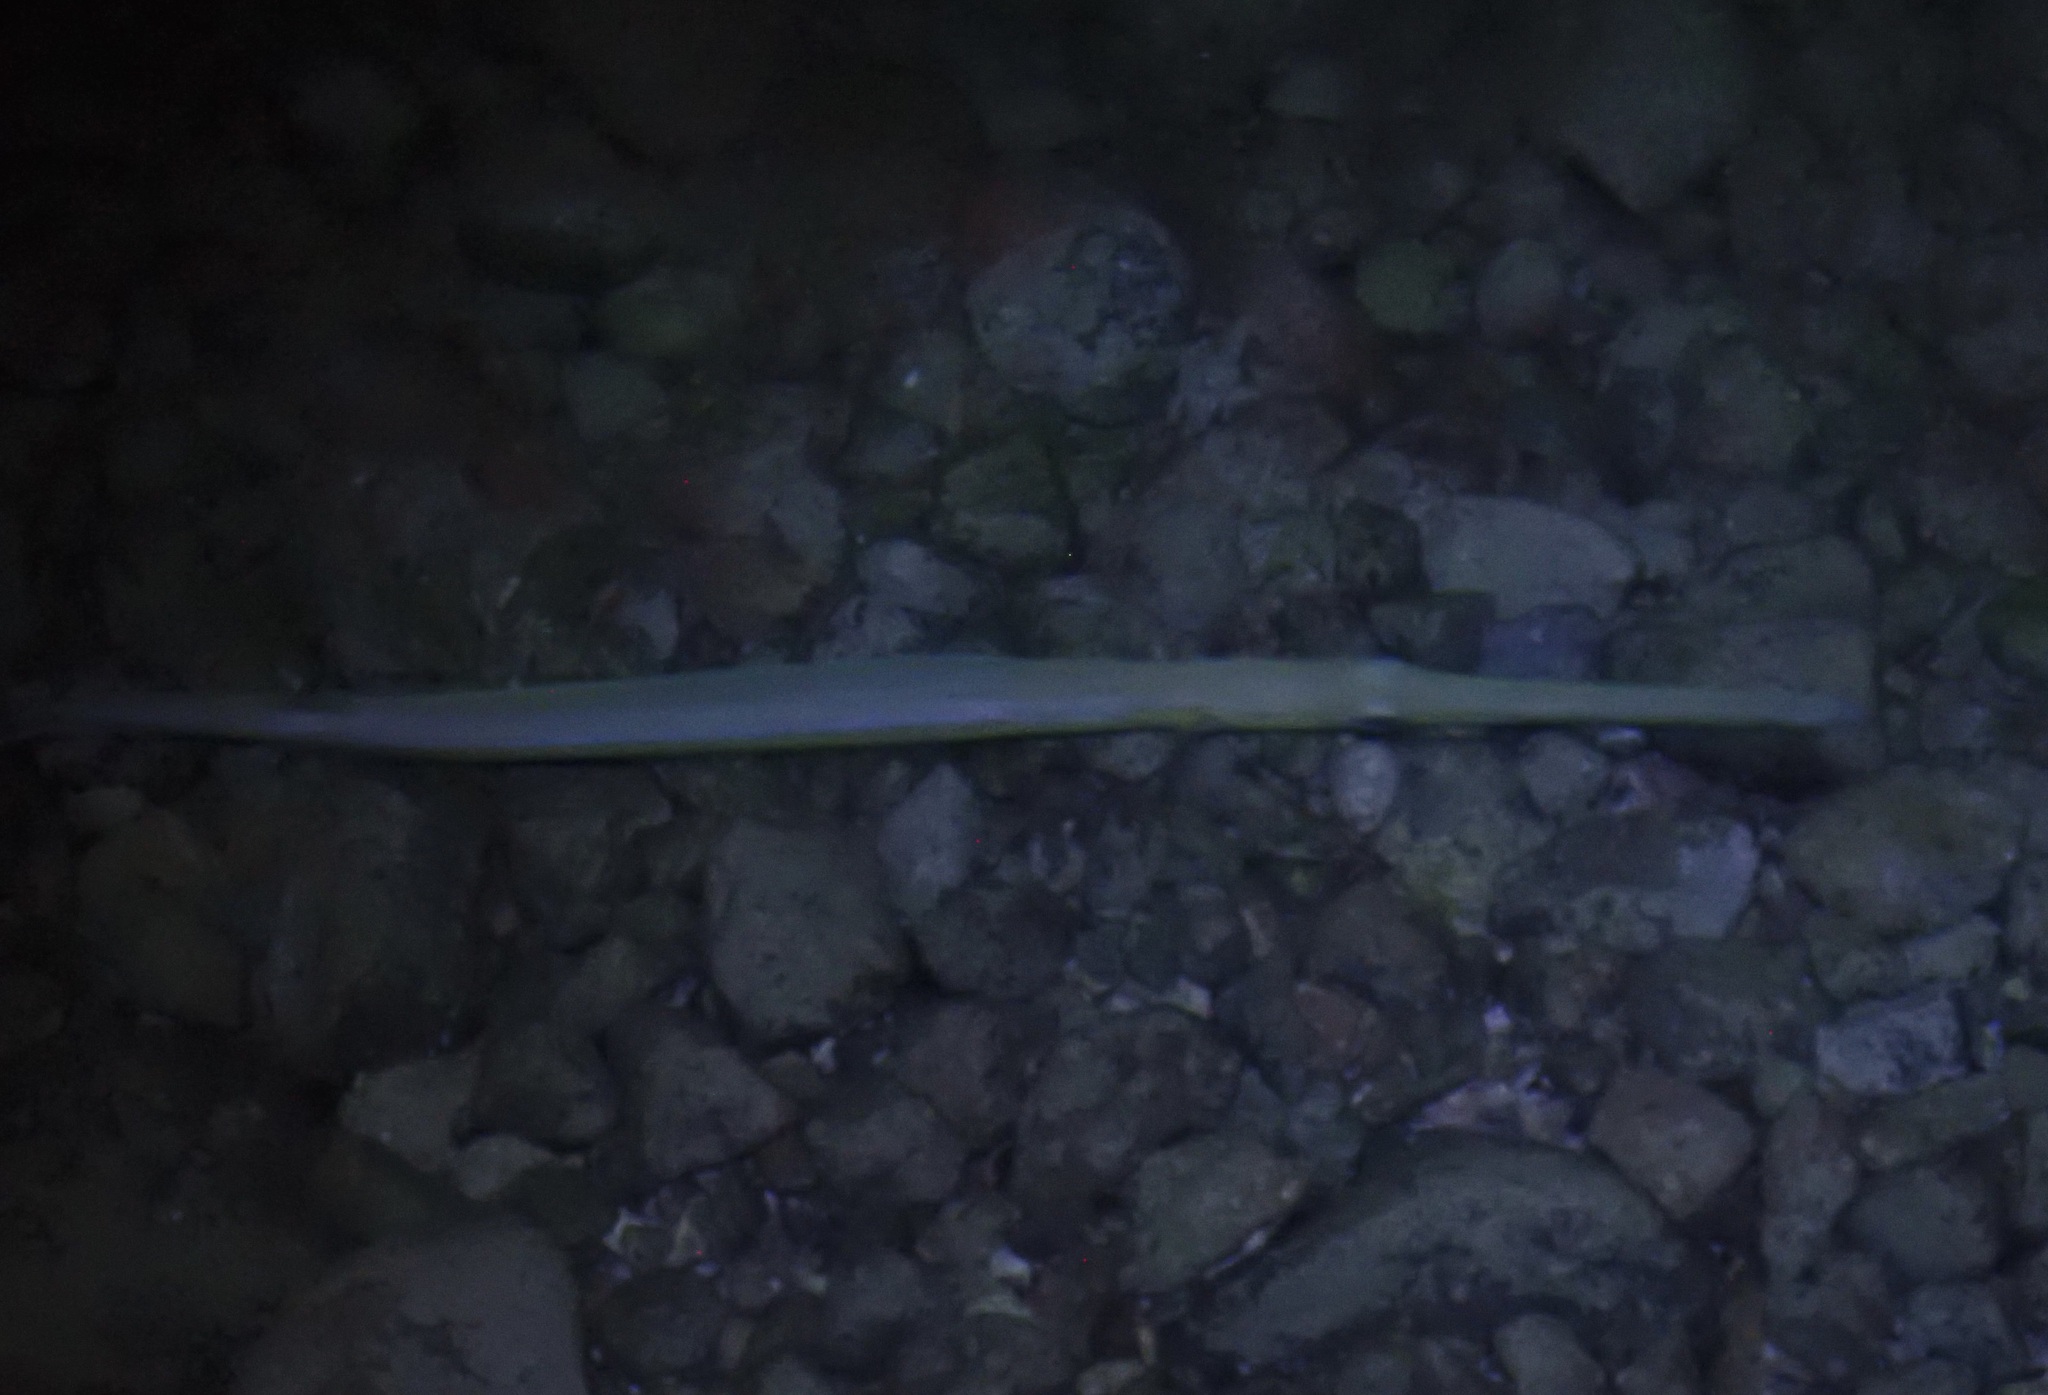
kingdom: Animalia
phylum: Chordata
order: Syngnathiformes
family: Fistulariidae
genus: Fistularia
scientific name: Fistularia commersonii
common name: Bluespotted cornetfish
